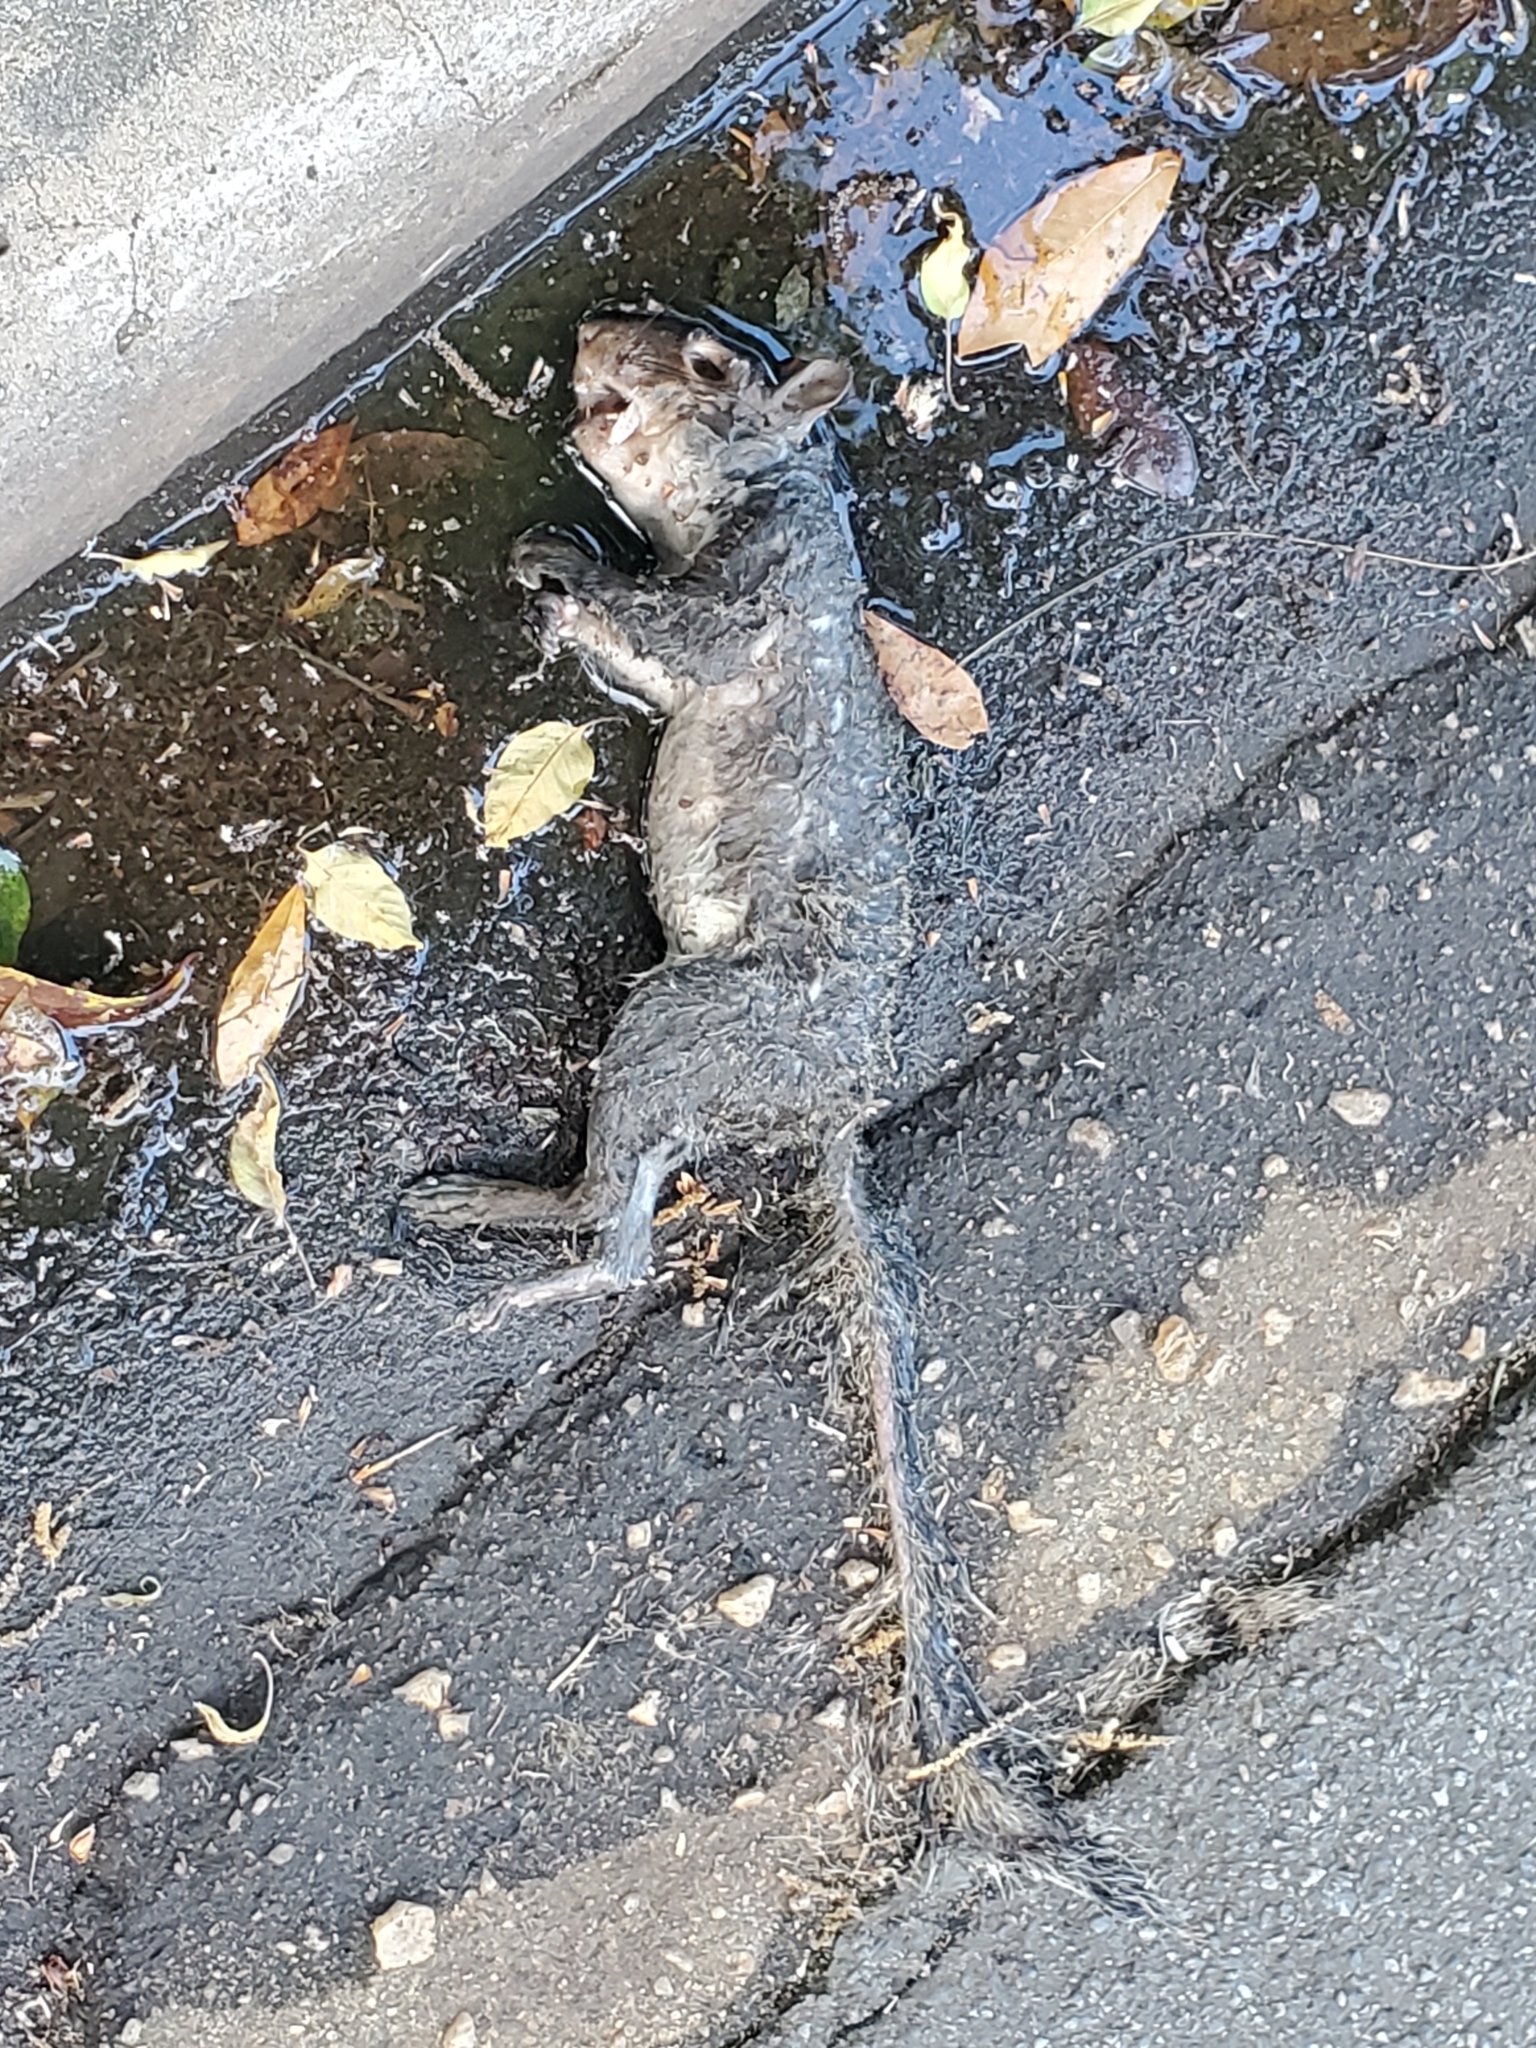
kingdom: Animalia
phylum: Chordata
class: Mammalia
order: Rodentia
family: Sciuridae
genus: Sciurus
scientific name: Sciurus carolinensis
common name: Eastern gray squirrel
